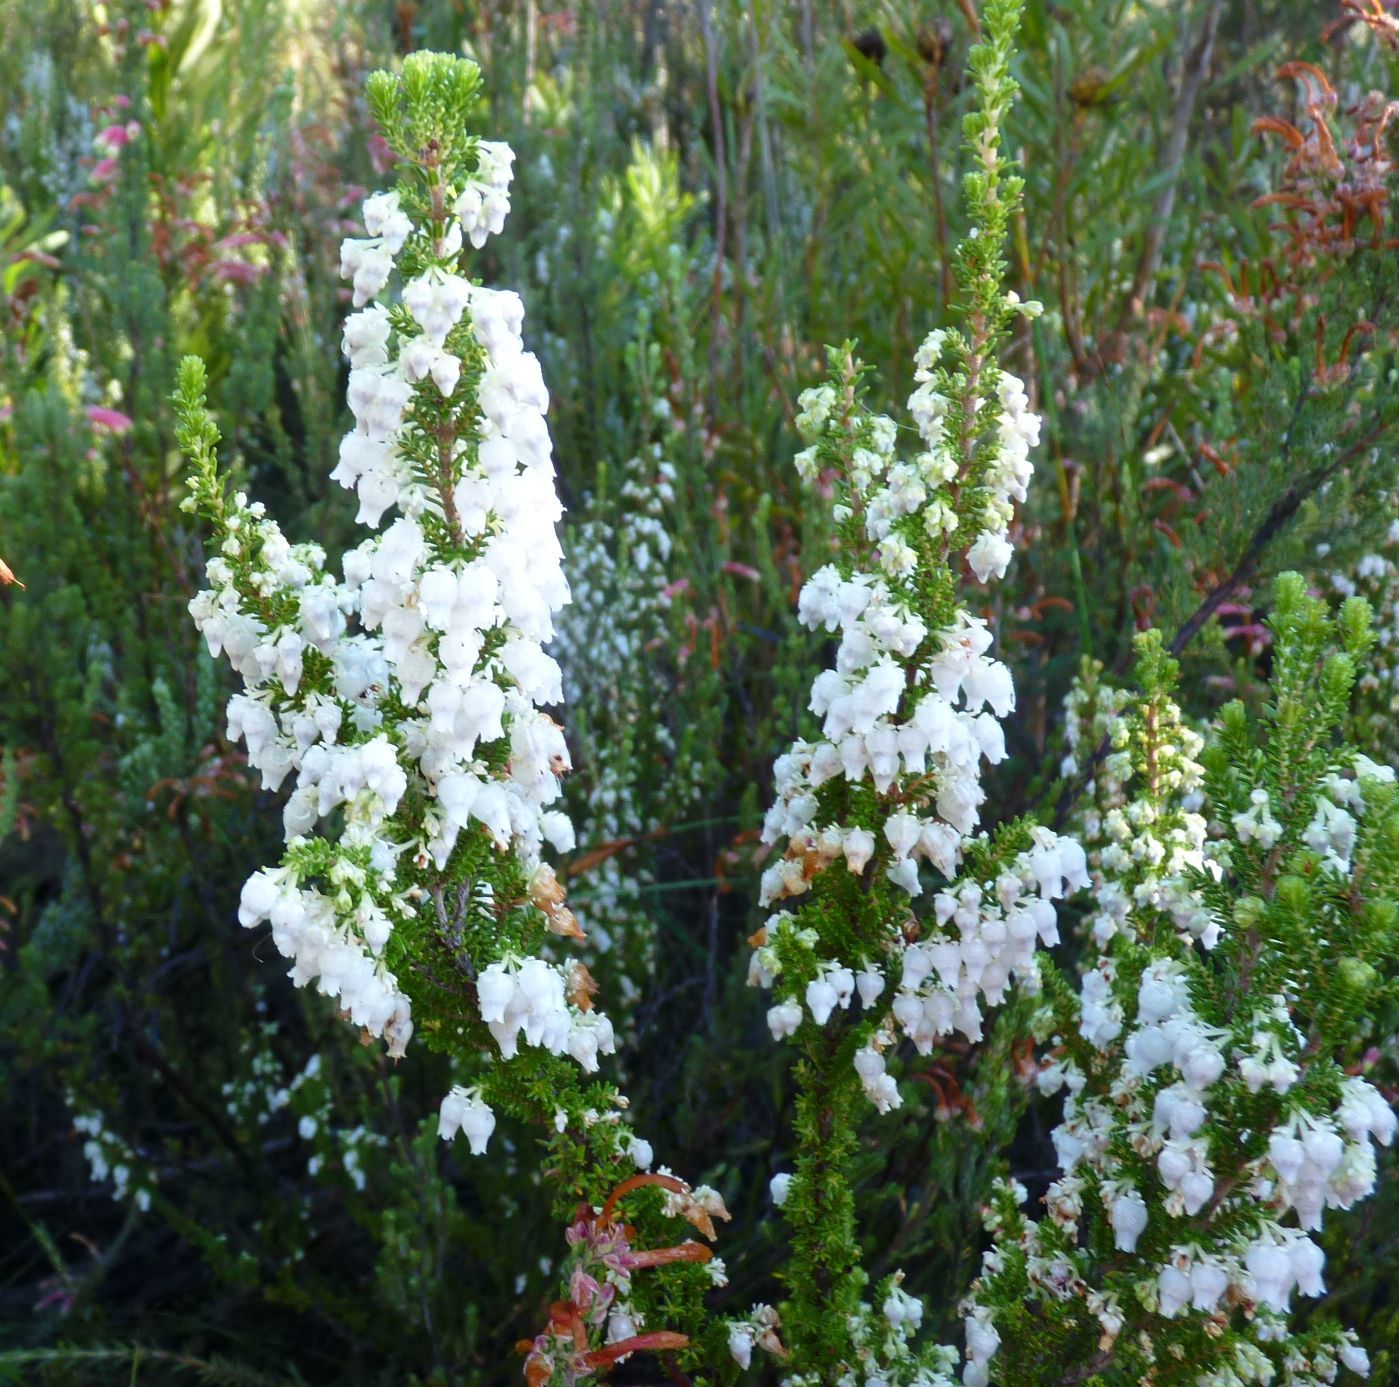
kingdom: Plantae
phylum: Tracheophyta
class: Magnoliopsida
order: Ericales
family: Ericaceae
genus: Erica
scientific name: Erica glomiflora
